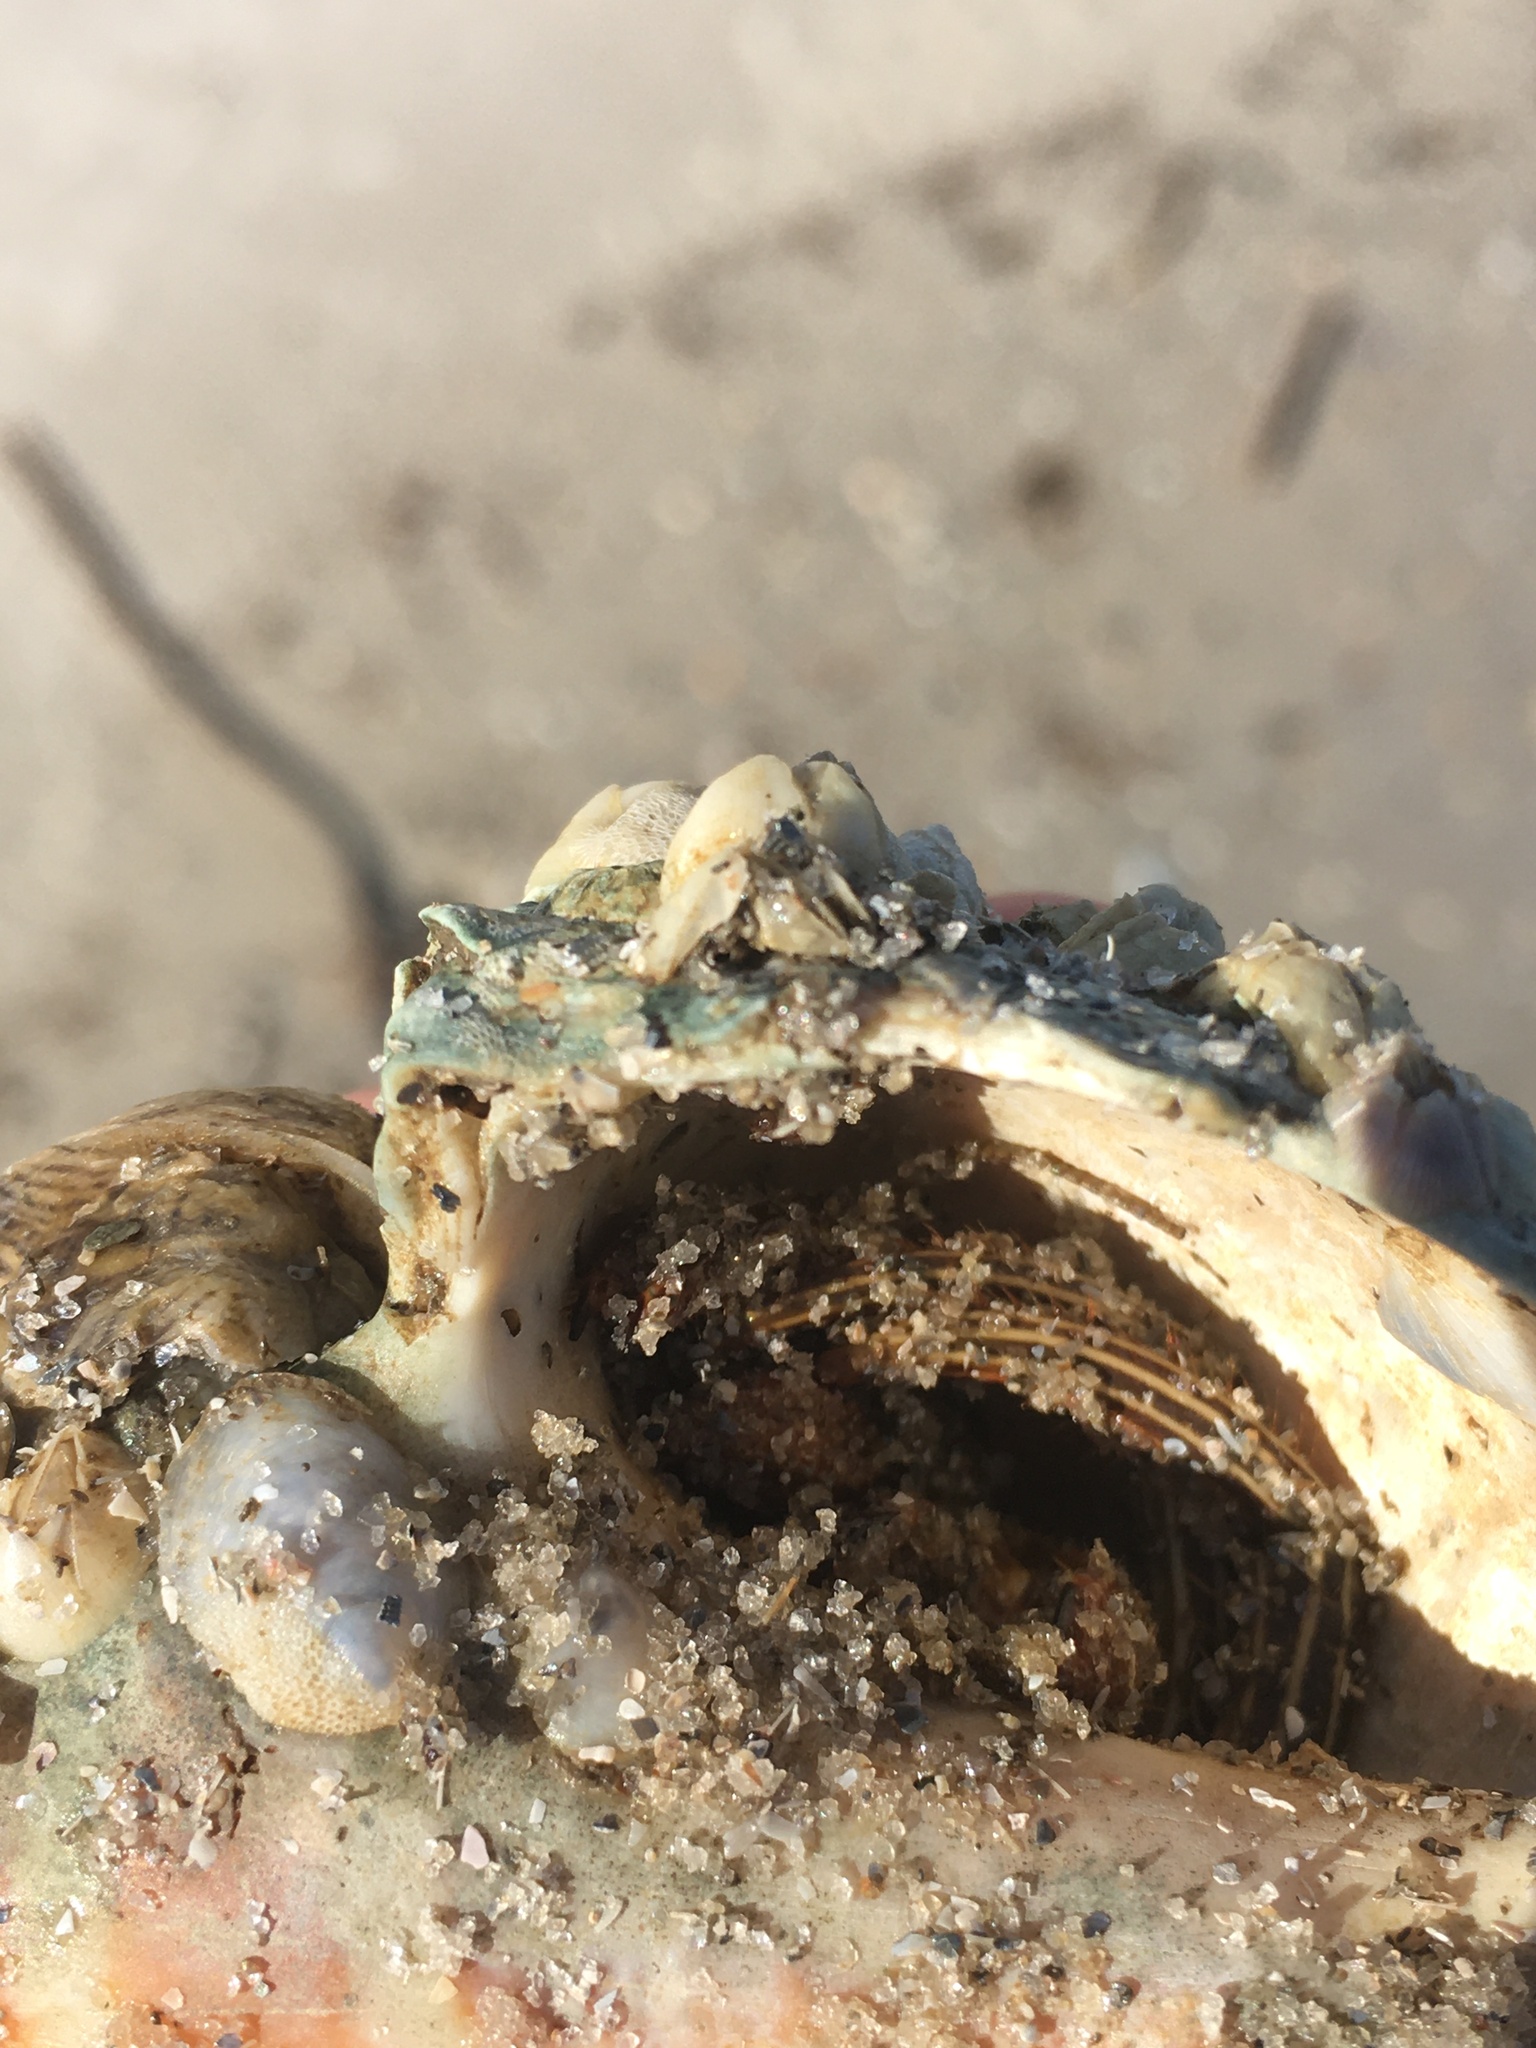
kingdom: Animalia
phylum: Arthropoda
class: Malacostraca
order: Decapoda
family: Diogenidae
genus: Clibanarius
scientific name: Clibanarius vittatus
